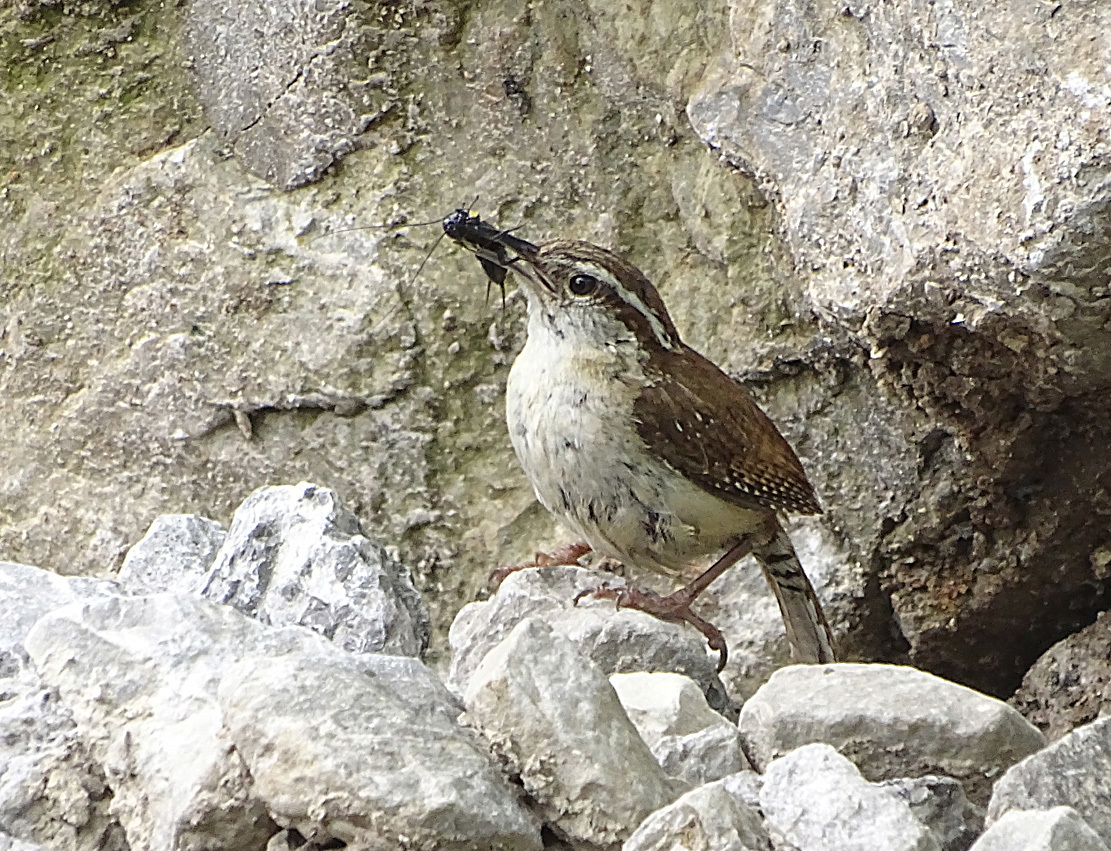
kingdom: Animalia
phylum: Chordata
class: Aves
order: Passeriformes
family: Troglodytidae
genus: Thryothorus
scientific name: Thryothorus ludovicianus
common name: Carolina wren
